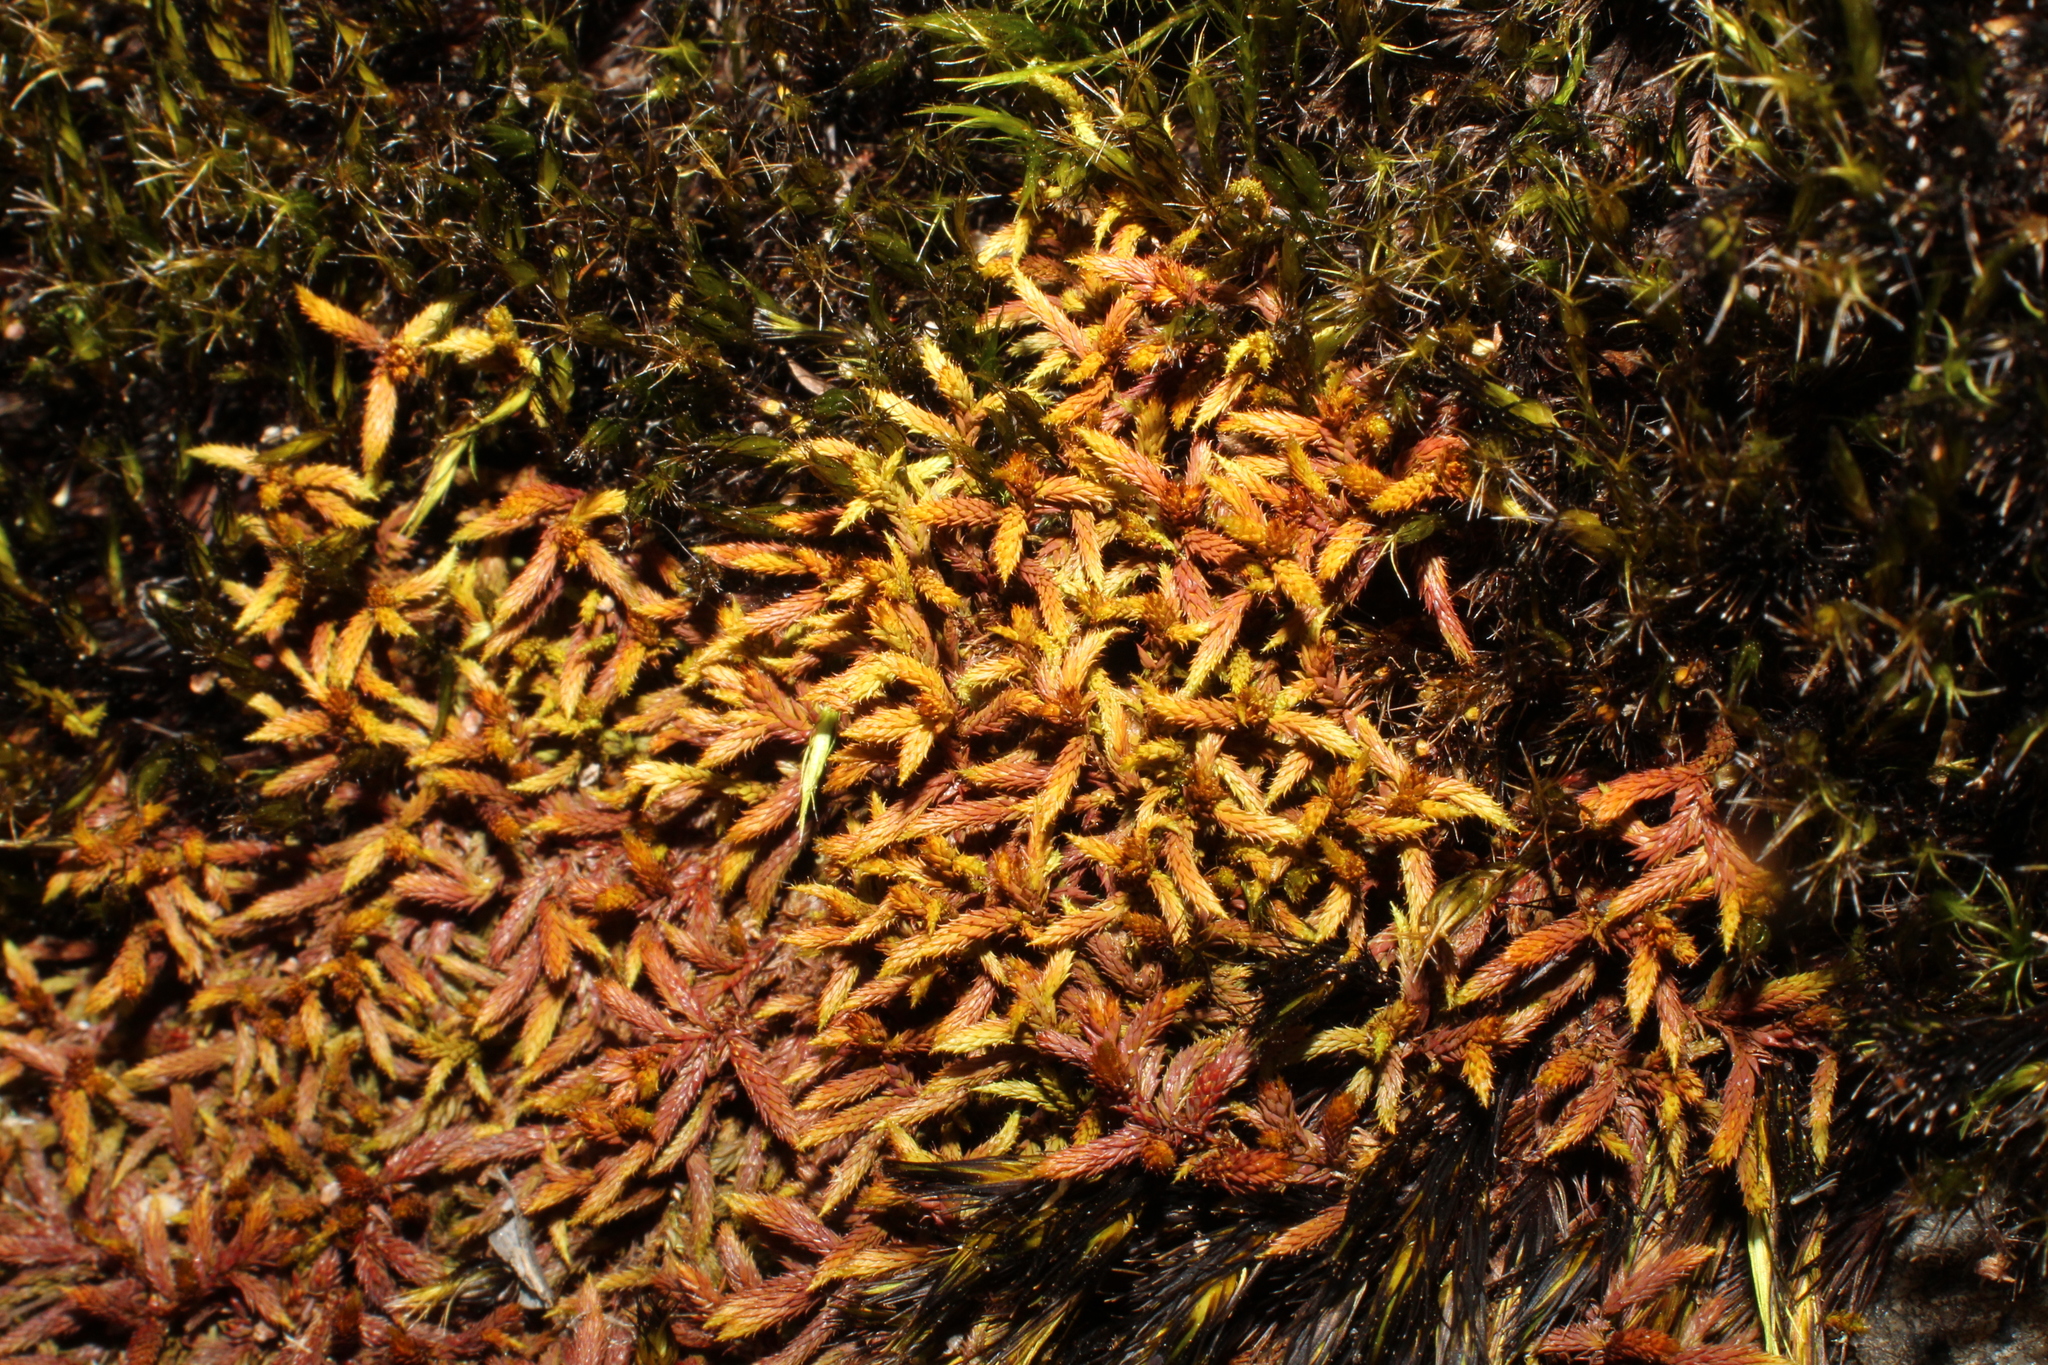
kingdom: Plantae
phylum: Bryophyta
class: Bryopsida
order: Hedwigiales
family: Hedwigiaceae
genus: Rhacocarpus
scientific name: Rhacocarpus purpurascens
